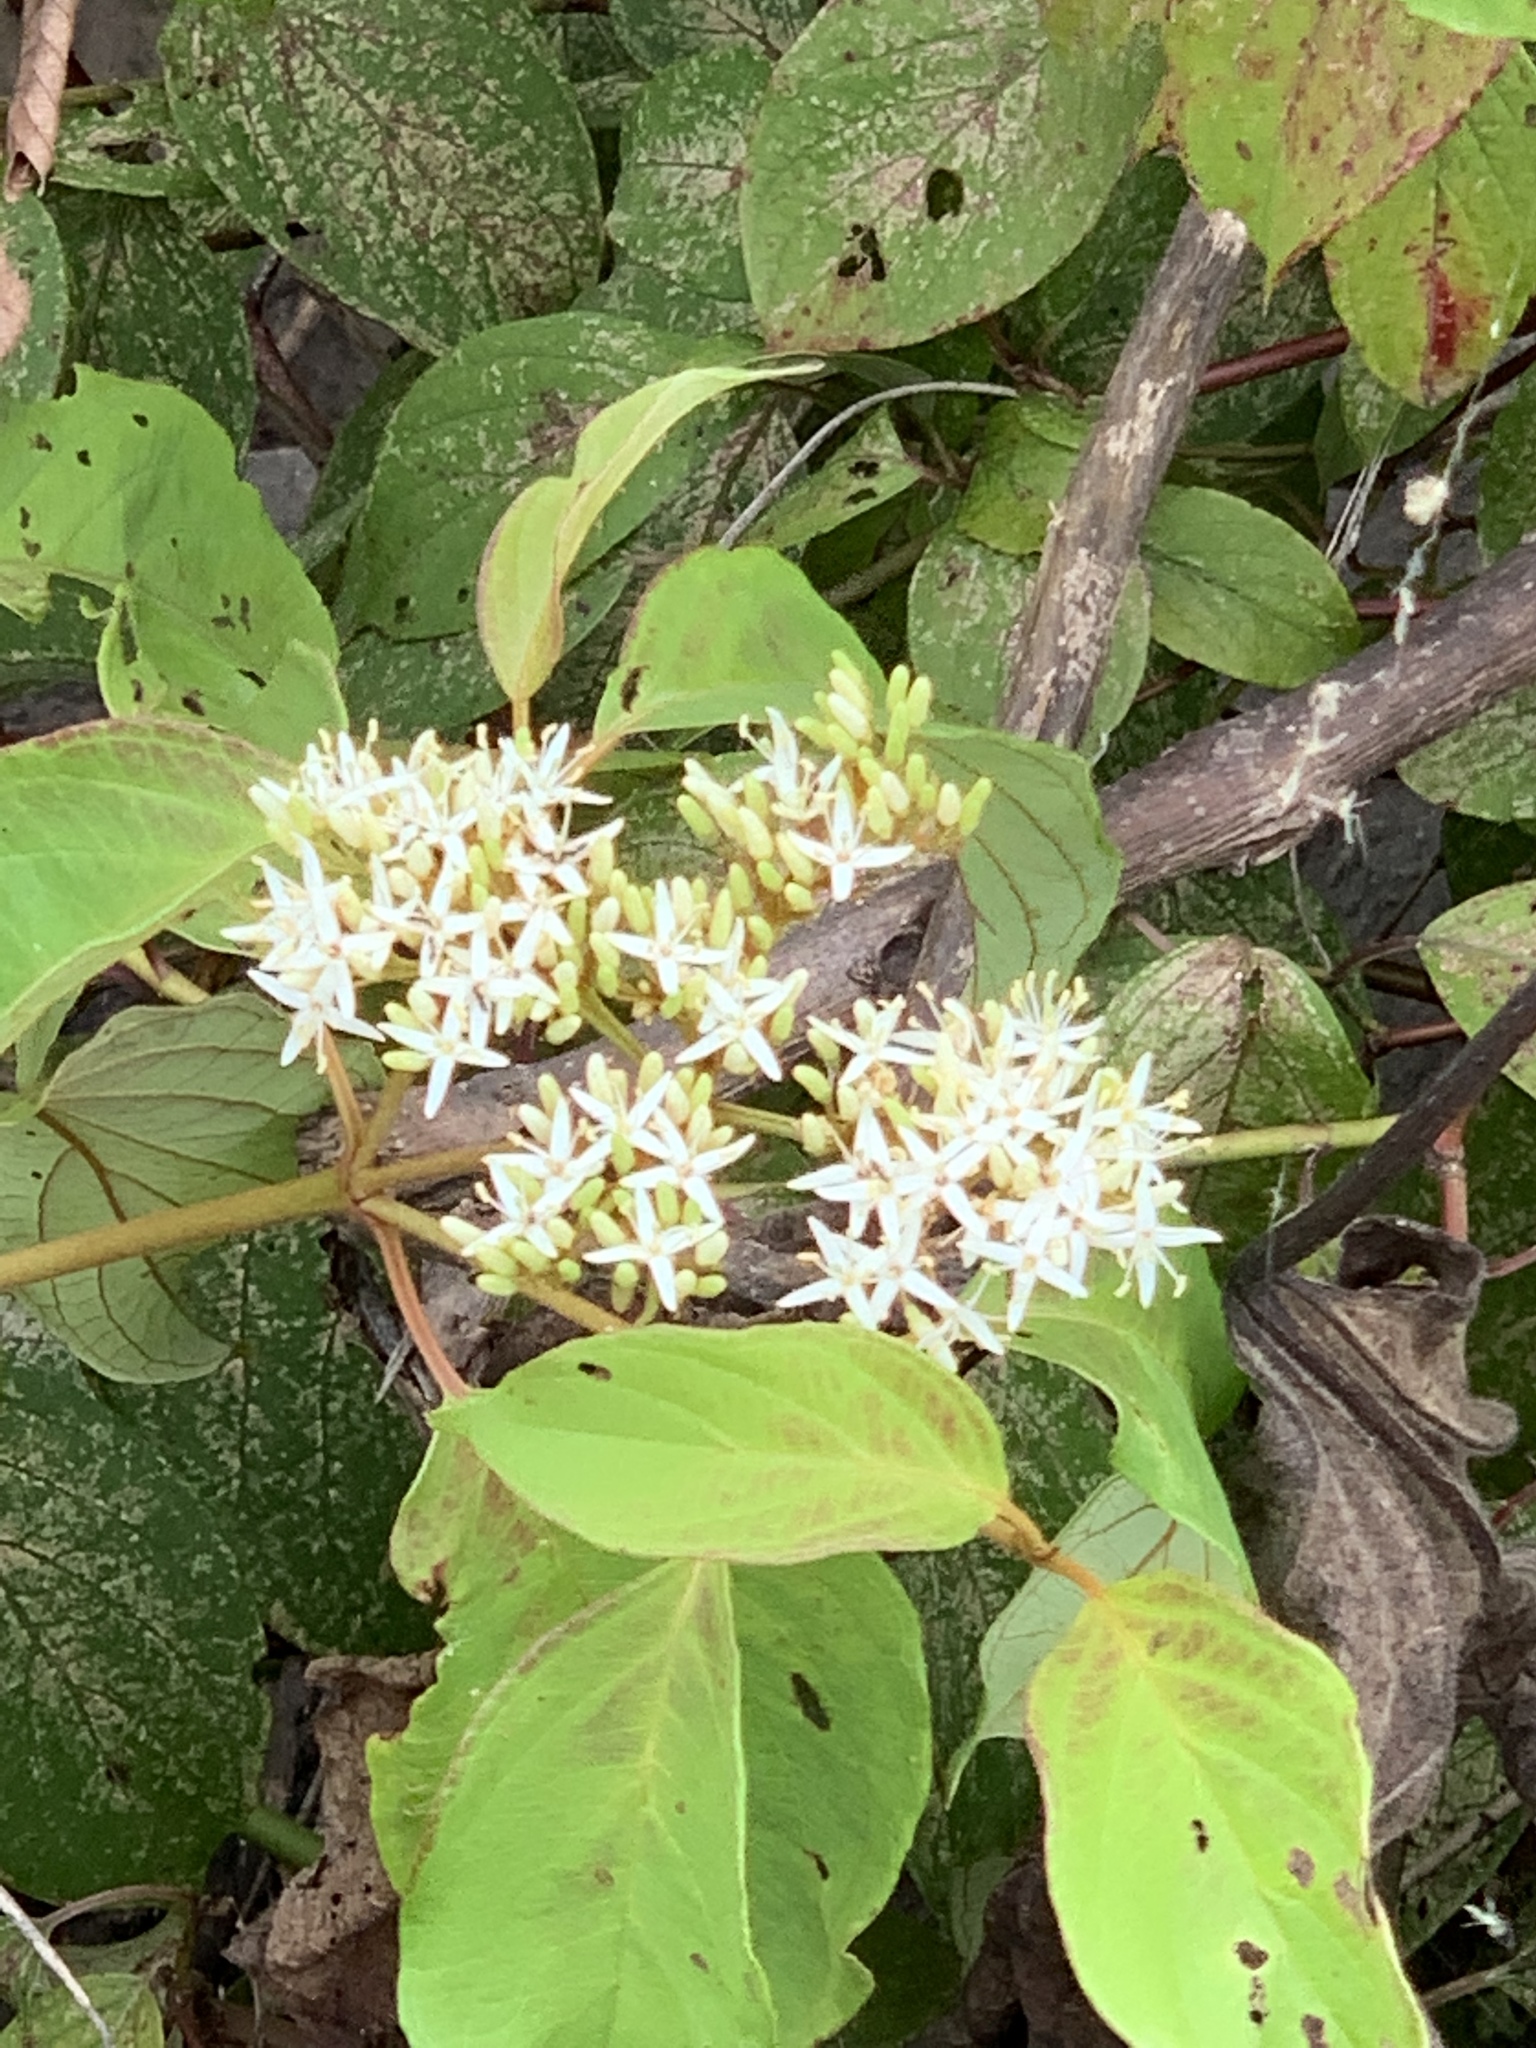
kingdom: Plantae
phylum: Tracheophyta
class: Magnoliopsida
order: Cornales
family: Cornaceae
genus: Cornus
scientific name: Cornus amomum
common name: Silky dogwood
